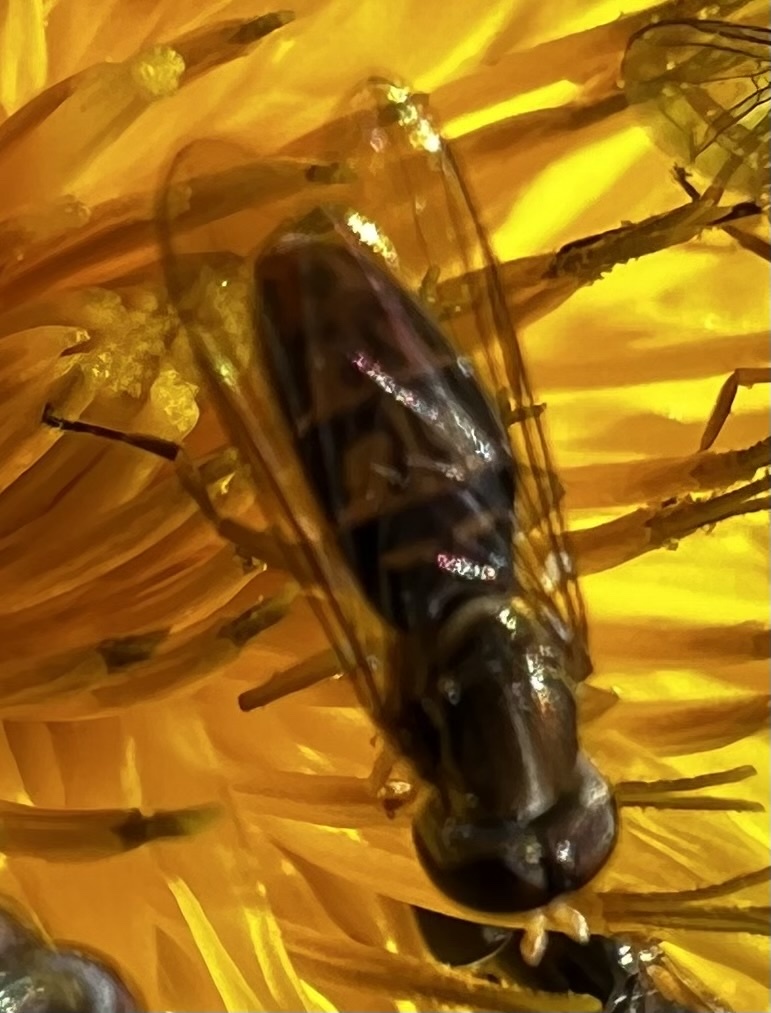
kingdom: Animalia
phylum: Arthropoda
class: Insecta
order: Diptera
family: Syrphidae
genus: Toxomerus
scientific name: Toxomerus marginatus
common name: Syrphid fly
